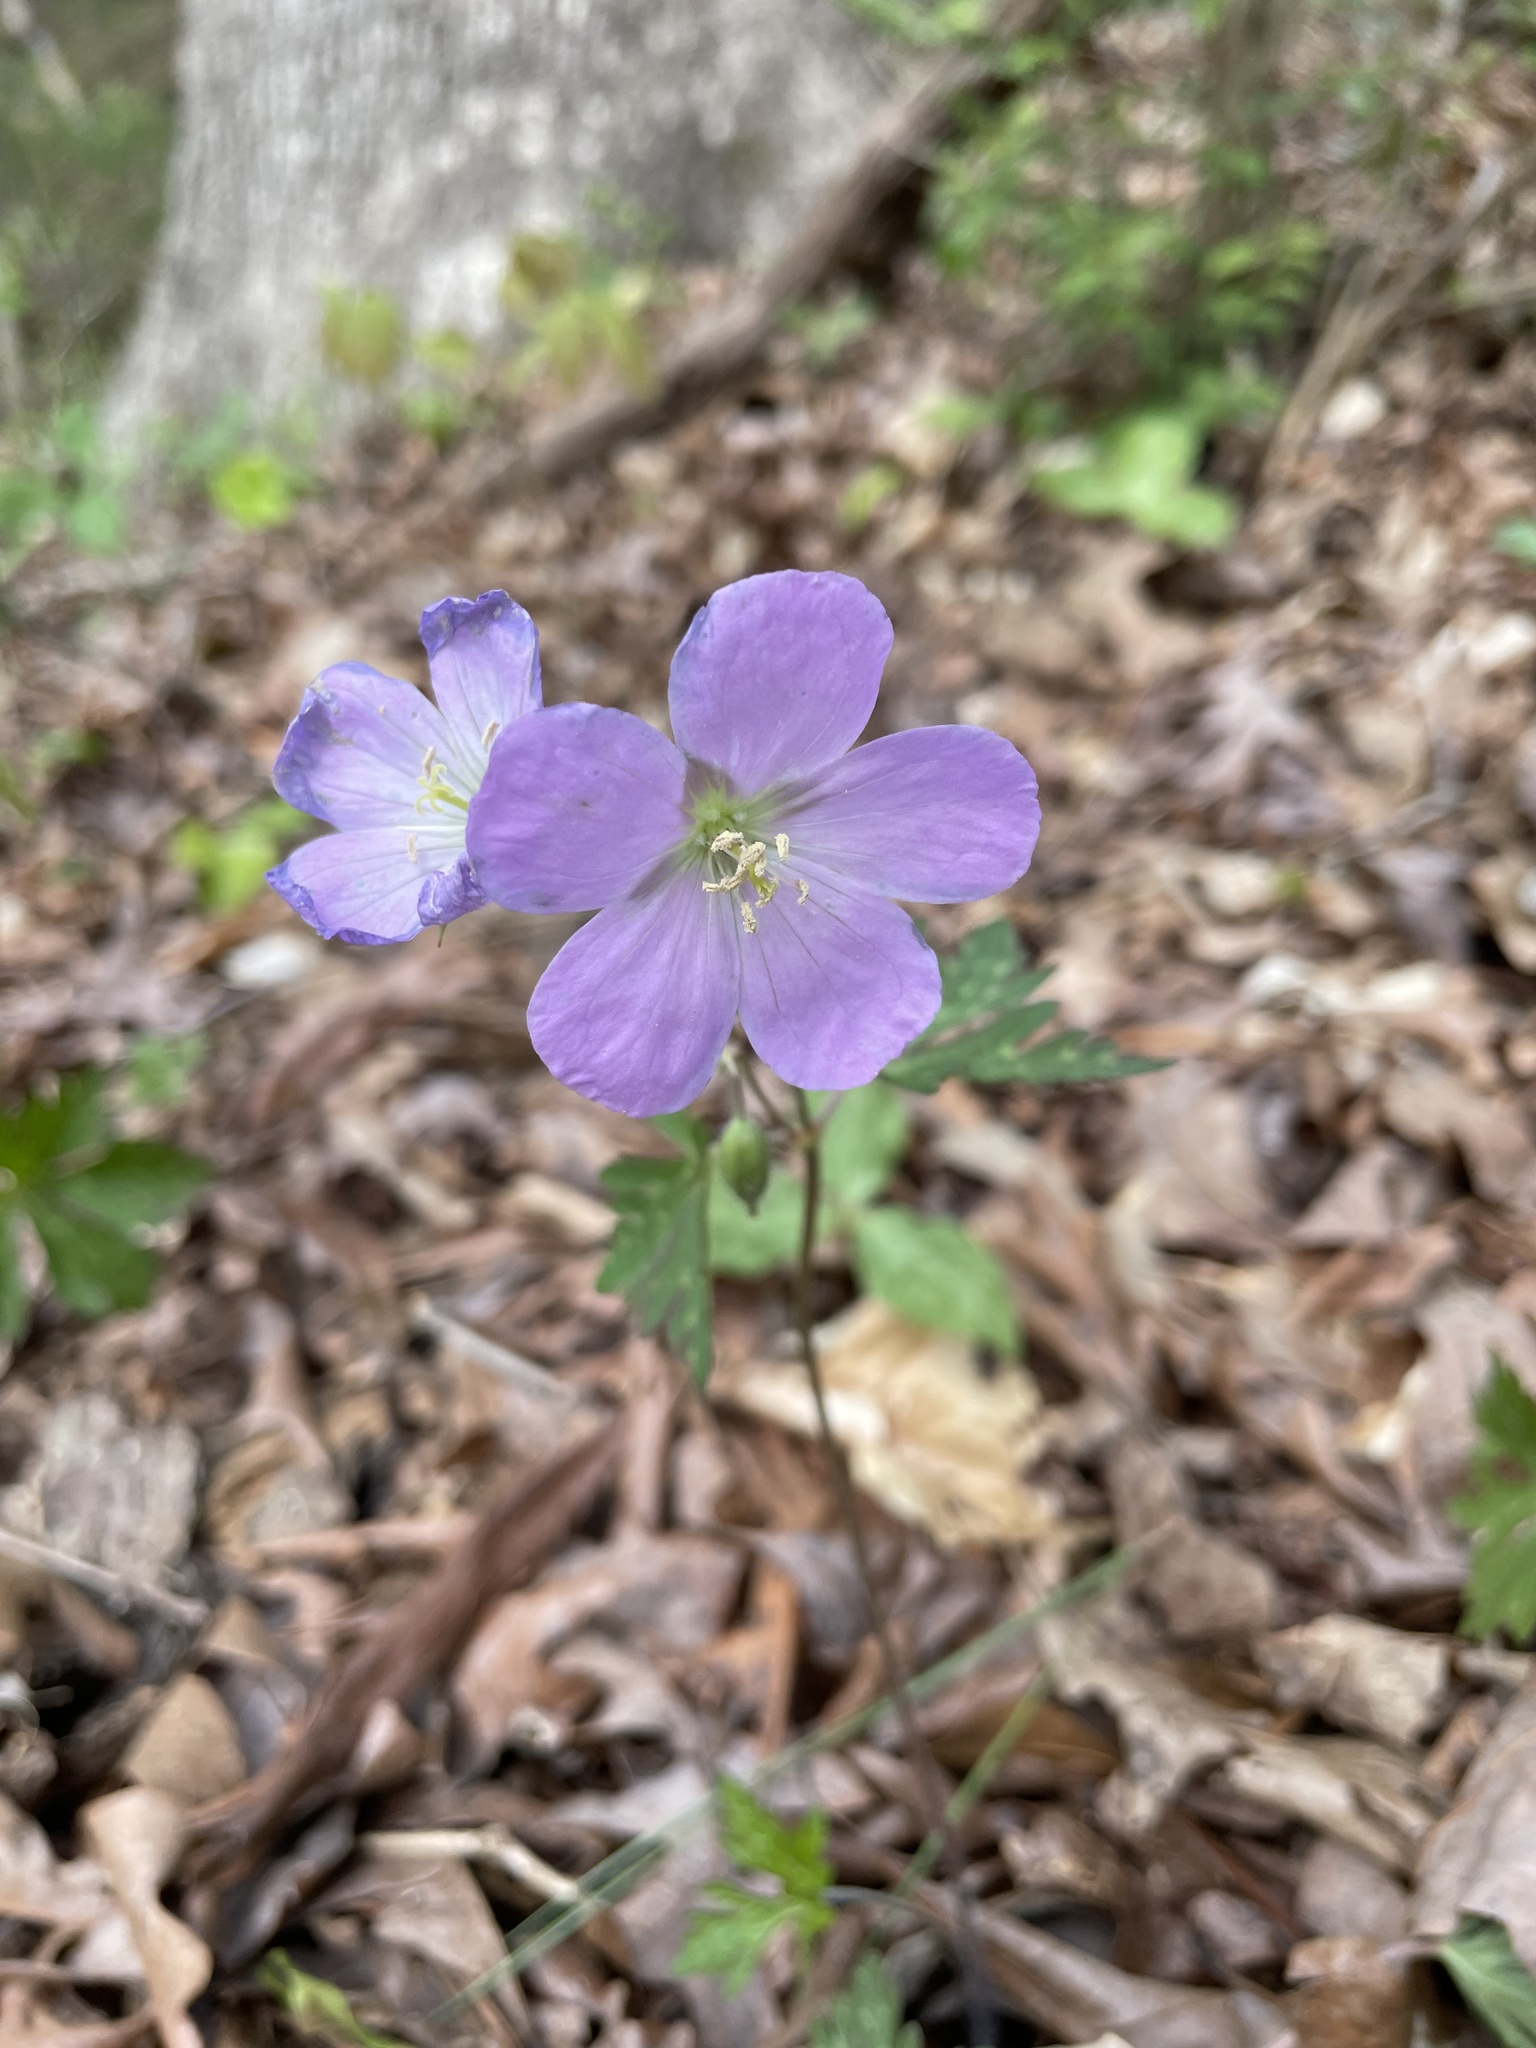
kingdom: Plantae
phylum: Tracheophyta
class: Magnoliopsida
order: Geraniales
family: Geraniaceae
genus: Geranium
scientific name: Geranium maculatum
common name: Spotted geranium
